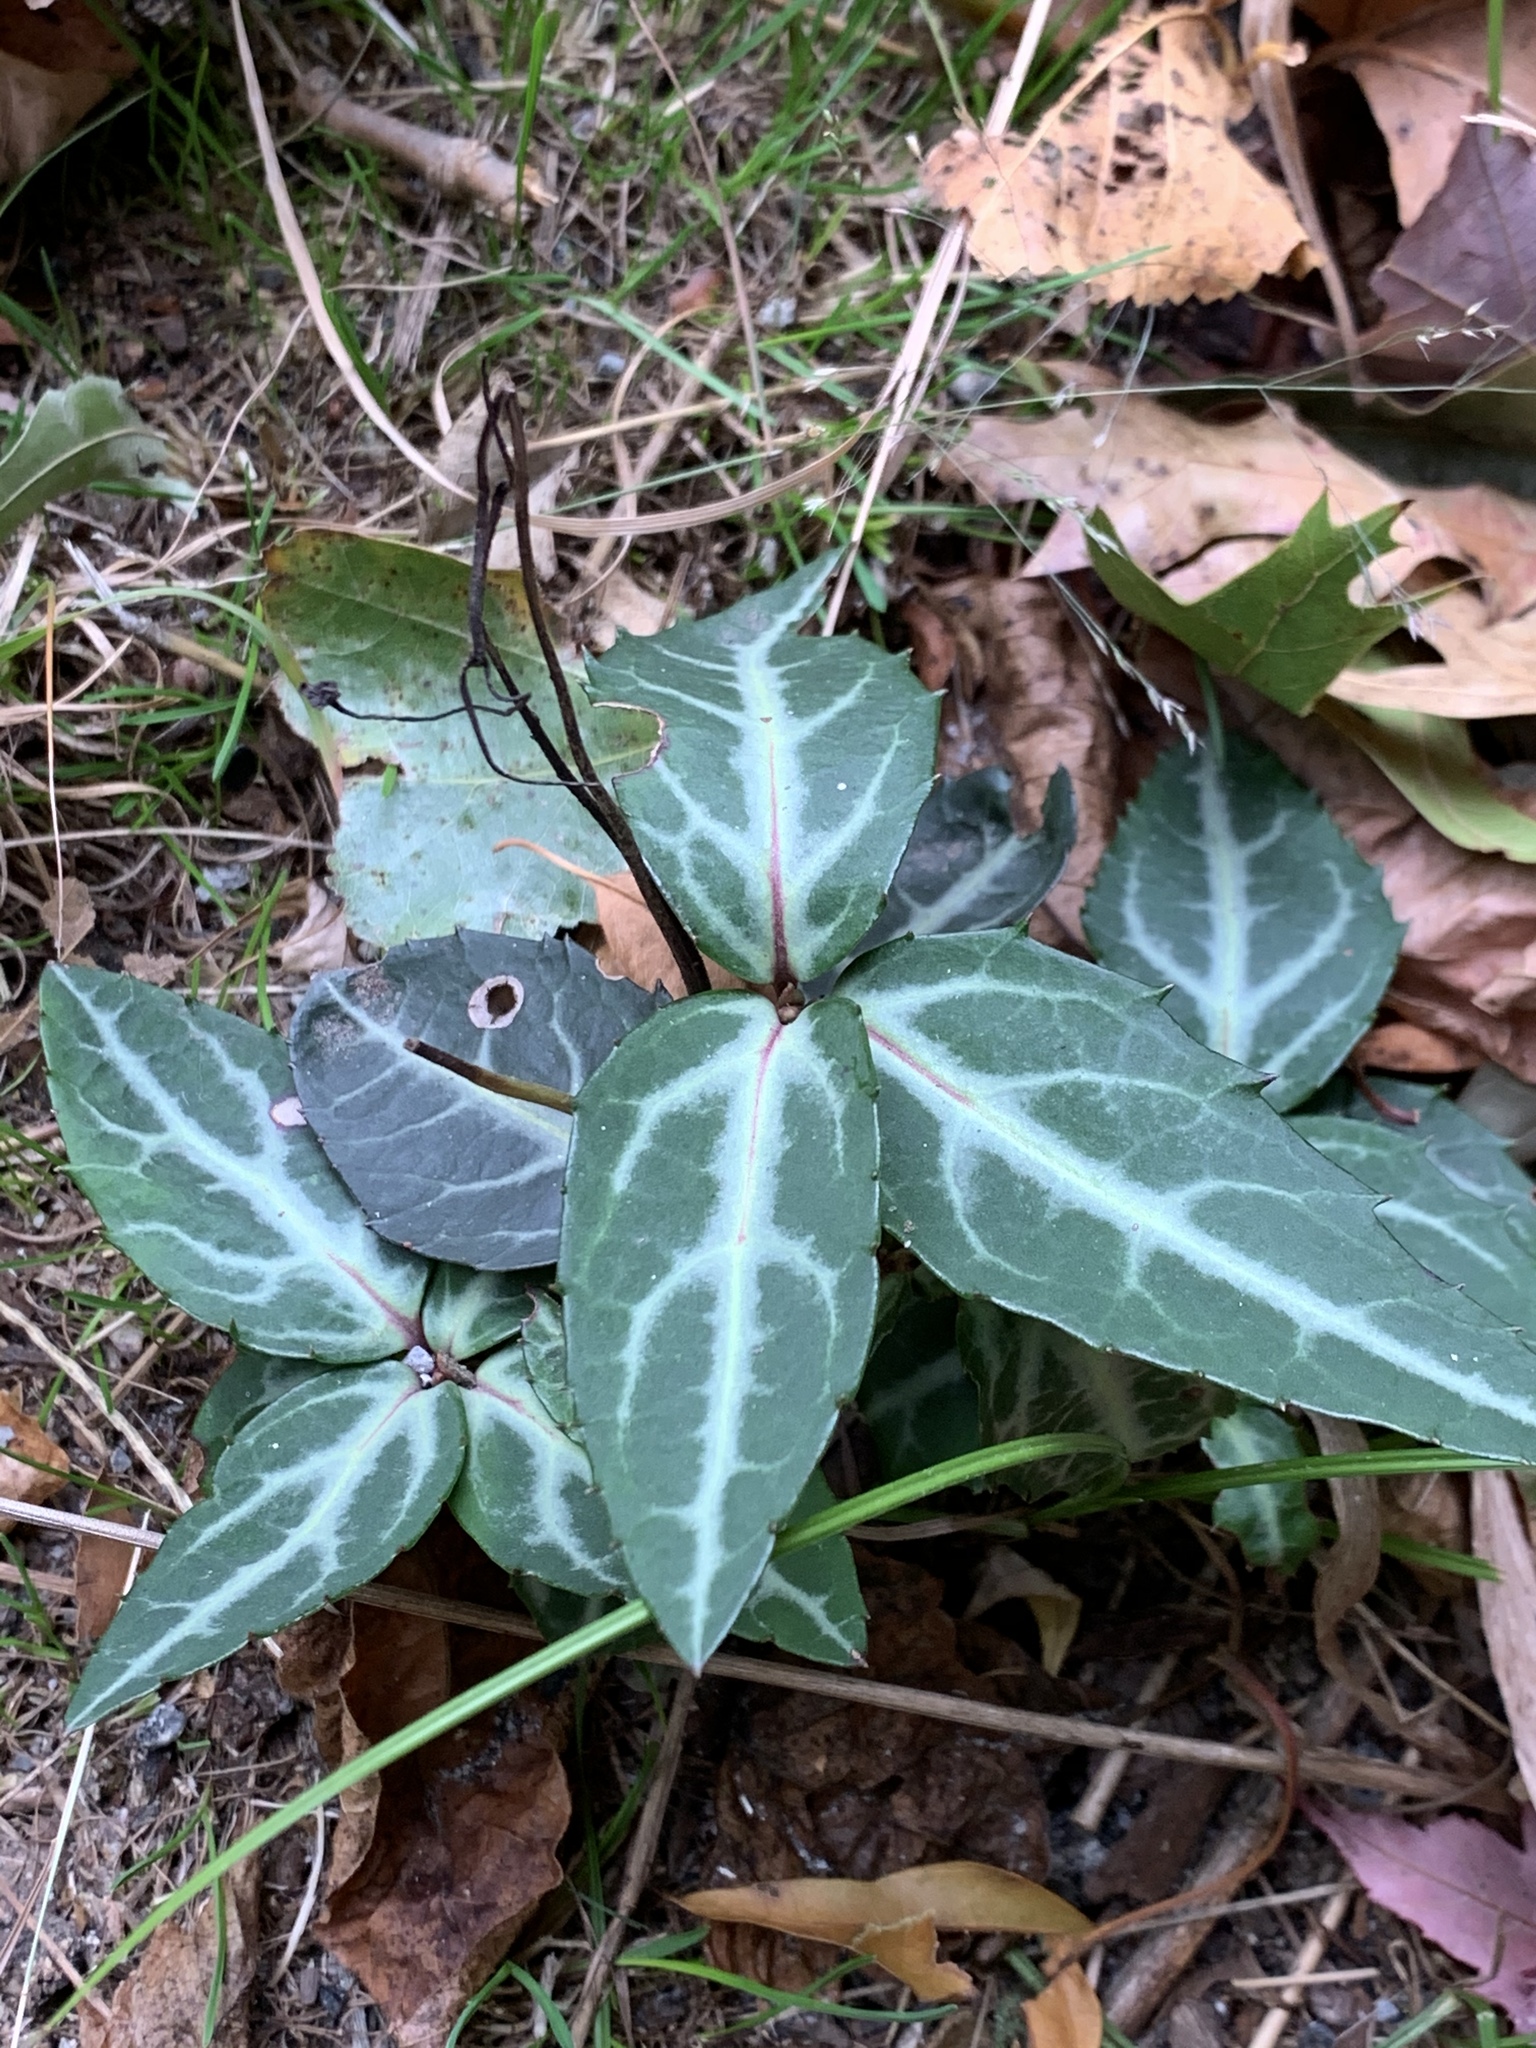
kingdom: Plantae
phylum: Tracheophyta
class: Magnoliopsida
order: Ericales
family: Ericaceae
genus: Chimaphila
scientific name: Chimaphila maculata
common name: Spotted pipsissewa
